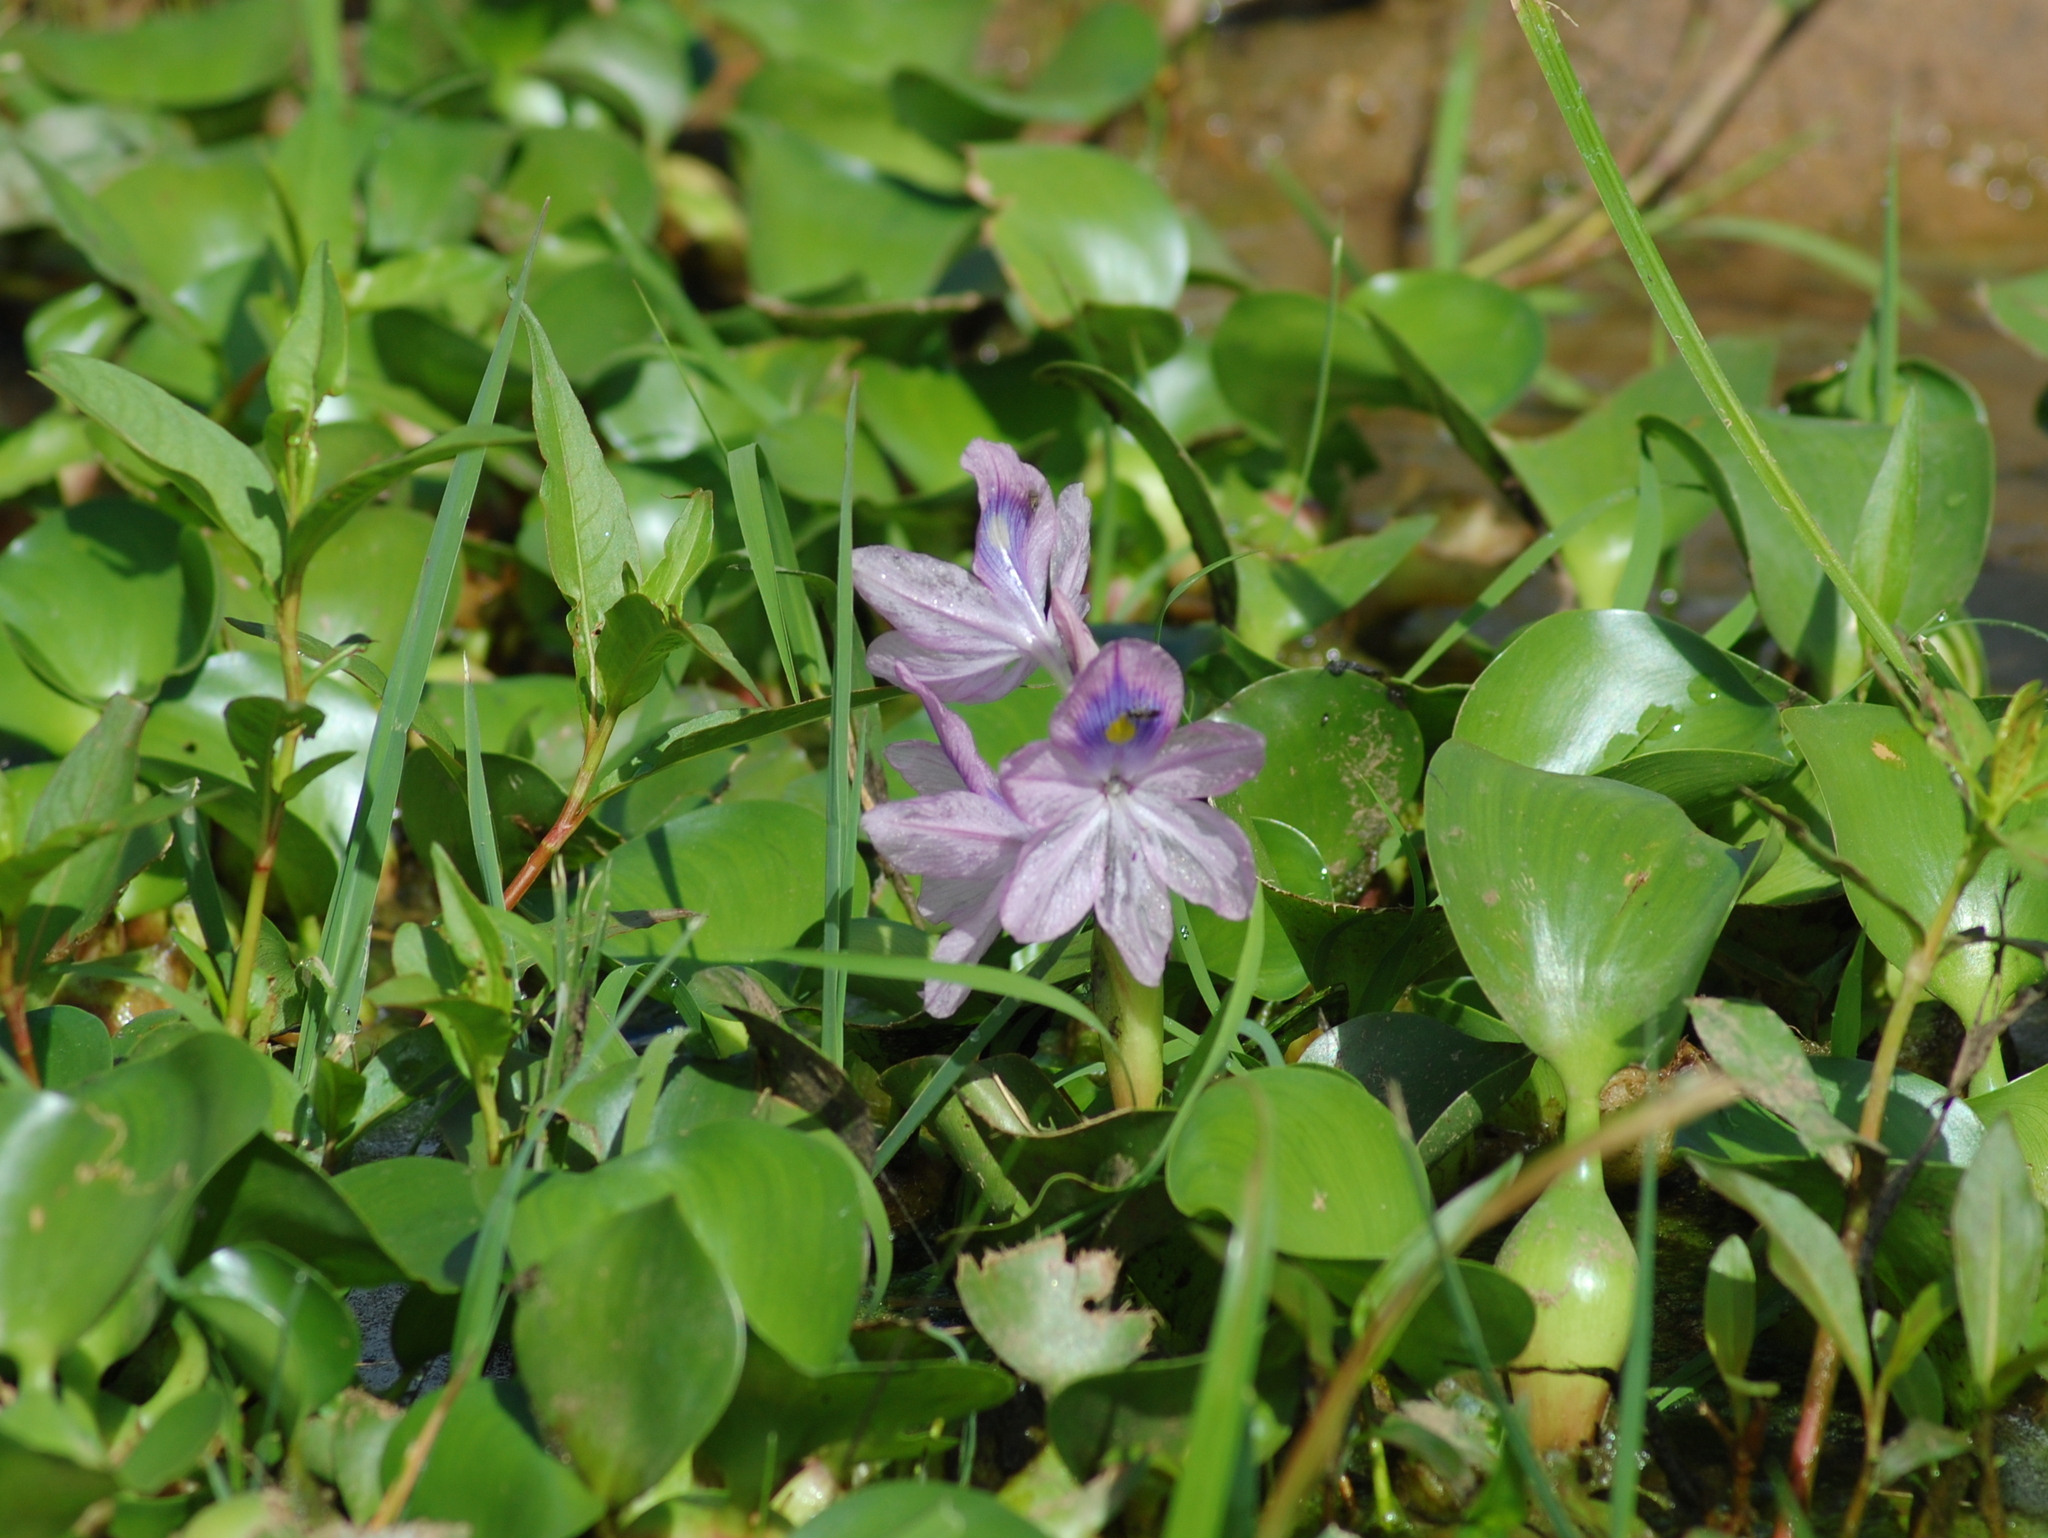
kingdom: Plantae
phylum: Tracheophyta
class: Liliopsida
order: Commelinales
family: Pontederiaceae
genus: Pontederia
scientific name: Pontederia crassipes
